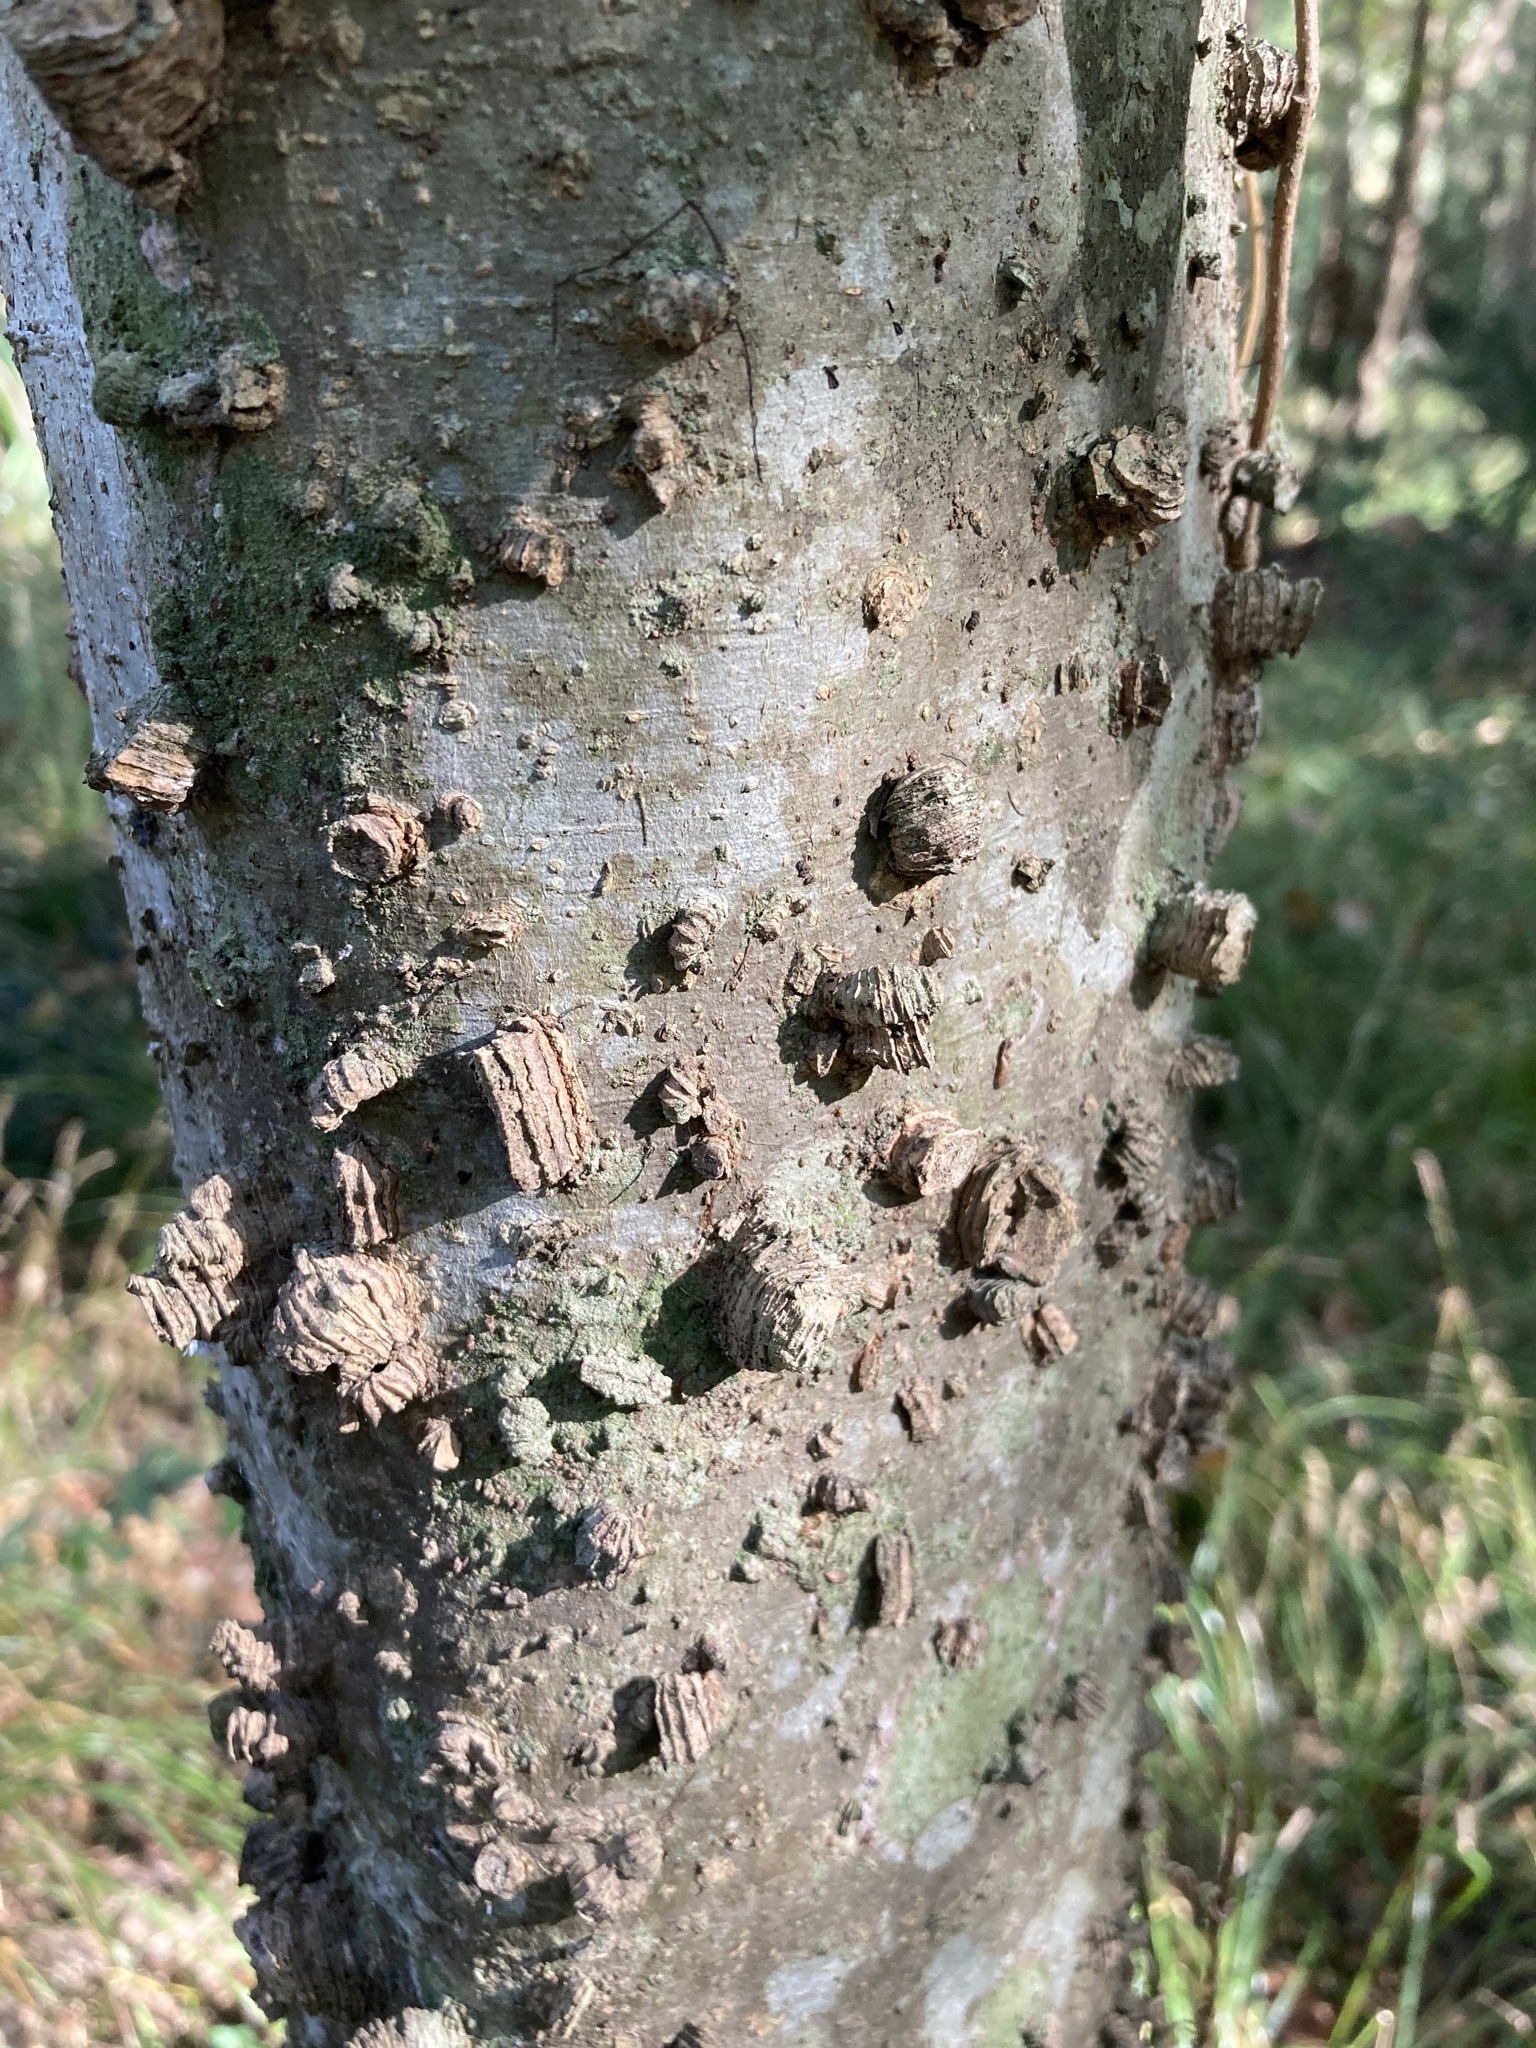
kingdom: Plantae
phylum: Tracheophyta
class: Magnoliopsida
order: Rosales
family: Cannabaceae
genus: Celtis
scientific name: Celtis laevigata
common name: Sugarberry
